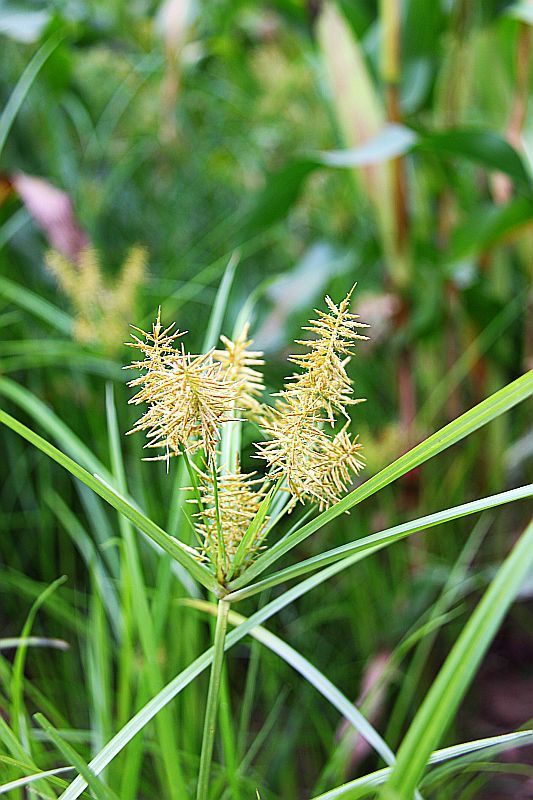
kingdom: Plantae
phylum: Tracheophyta
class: Liliopsida
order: Poales
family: Cyperaceae
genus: Cyperus
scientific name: Cyperus esculentus
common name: Yellow nutsedge
